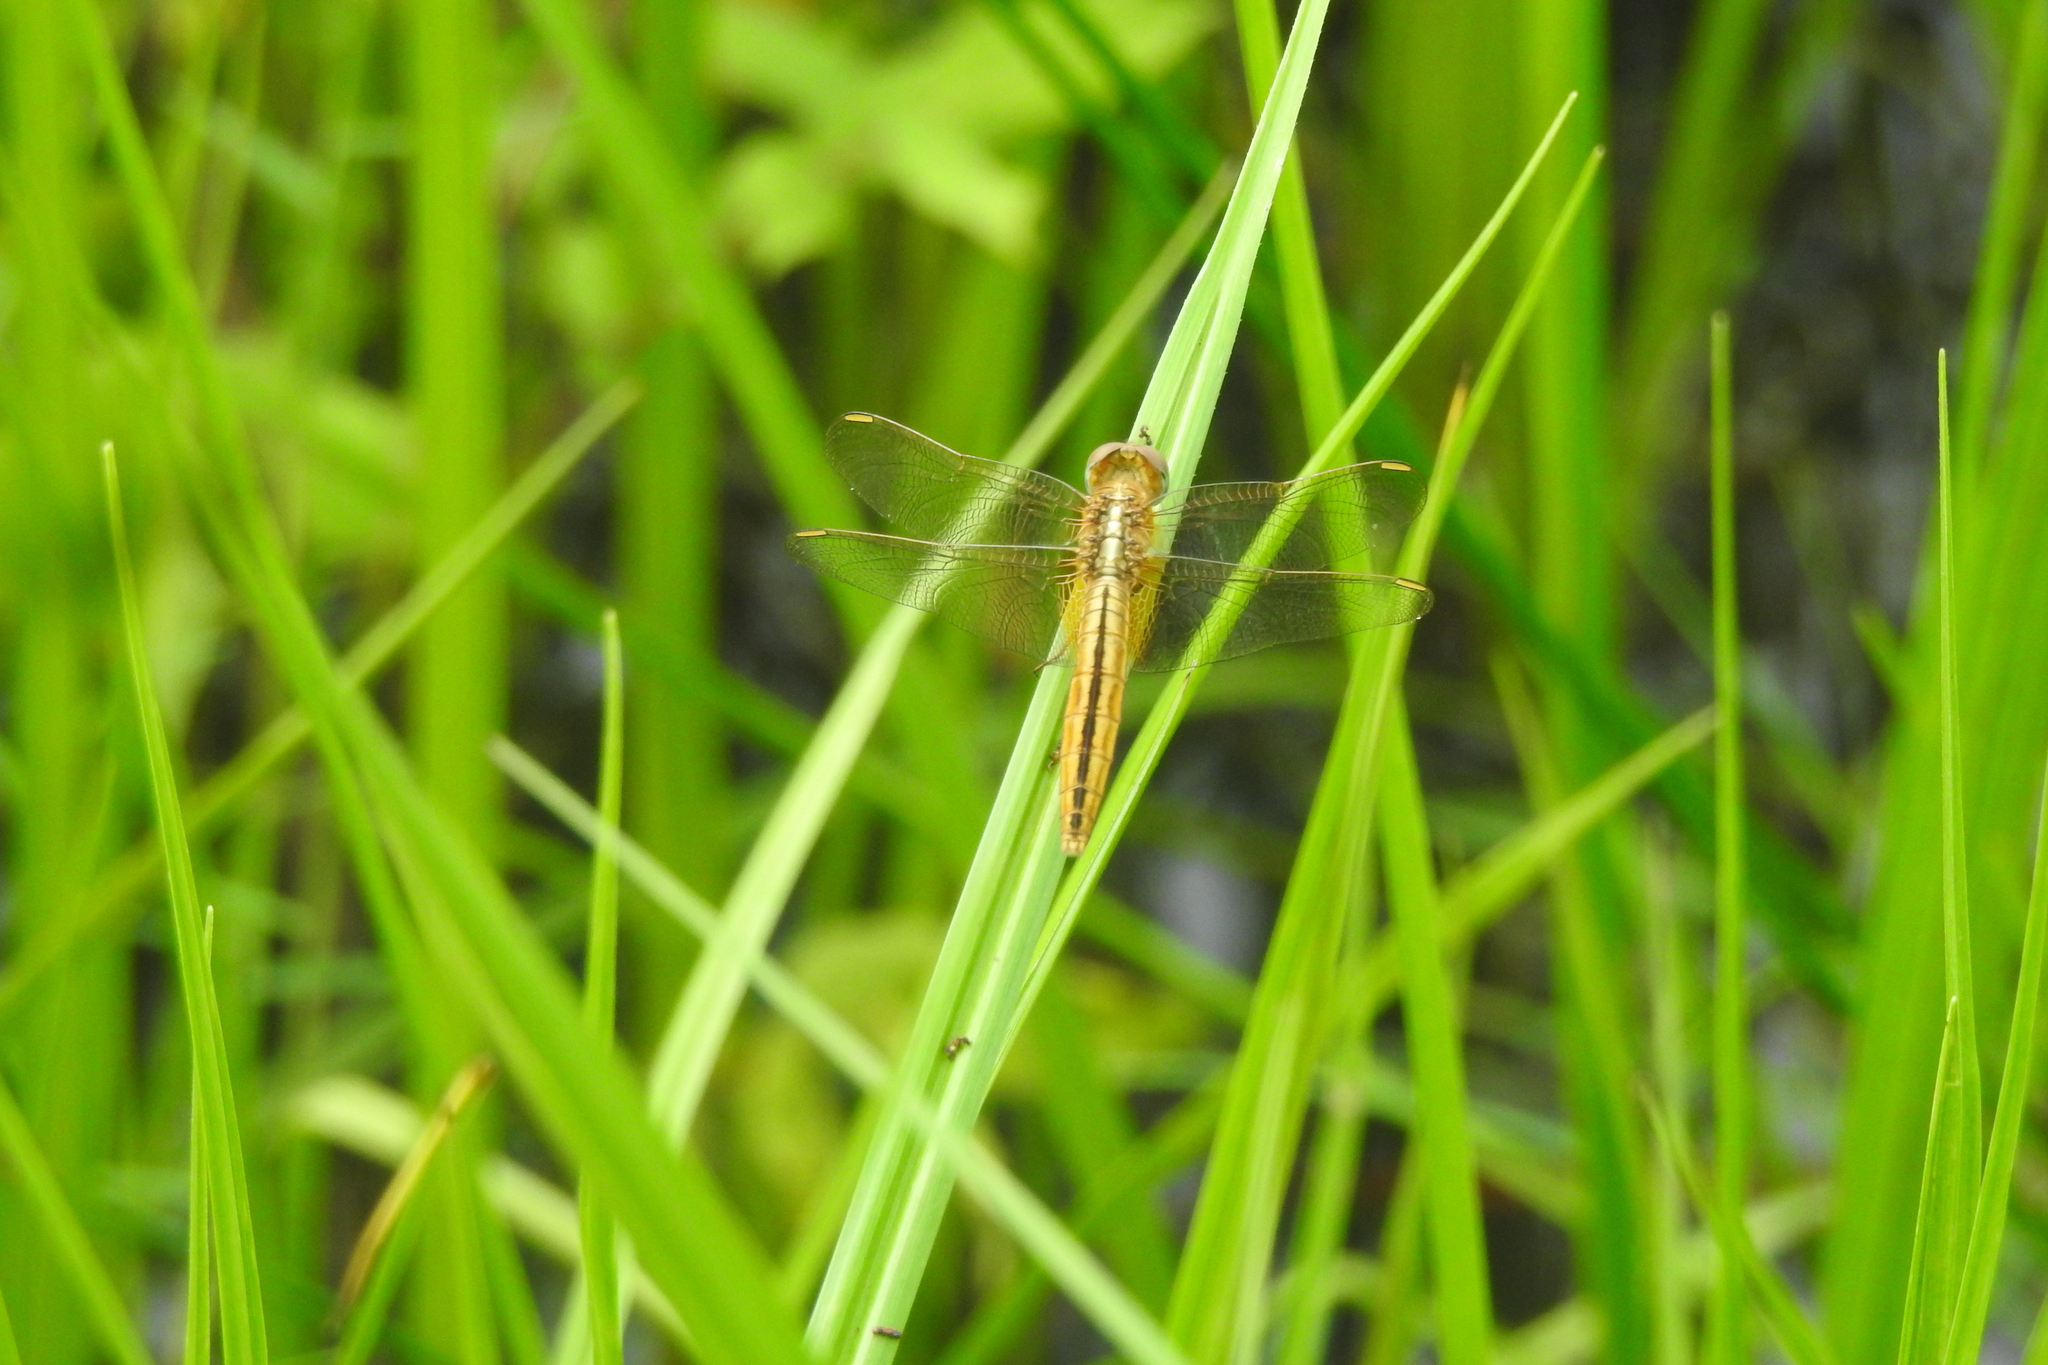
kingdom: Animalia
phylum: Arthropoda
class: Insecta
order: Odonata
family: Libellulidae
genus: Crocothemis
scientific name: Crocothemis servilia
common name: Scarlet skimmer
